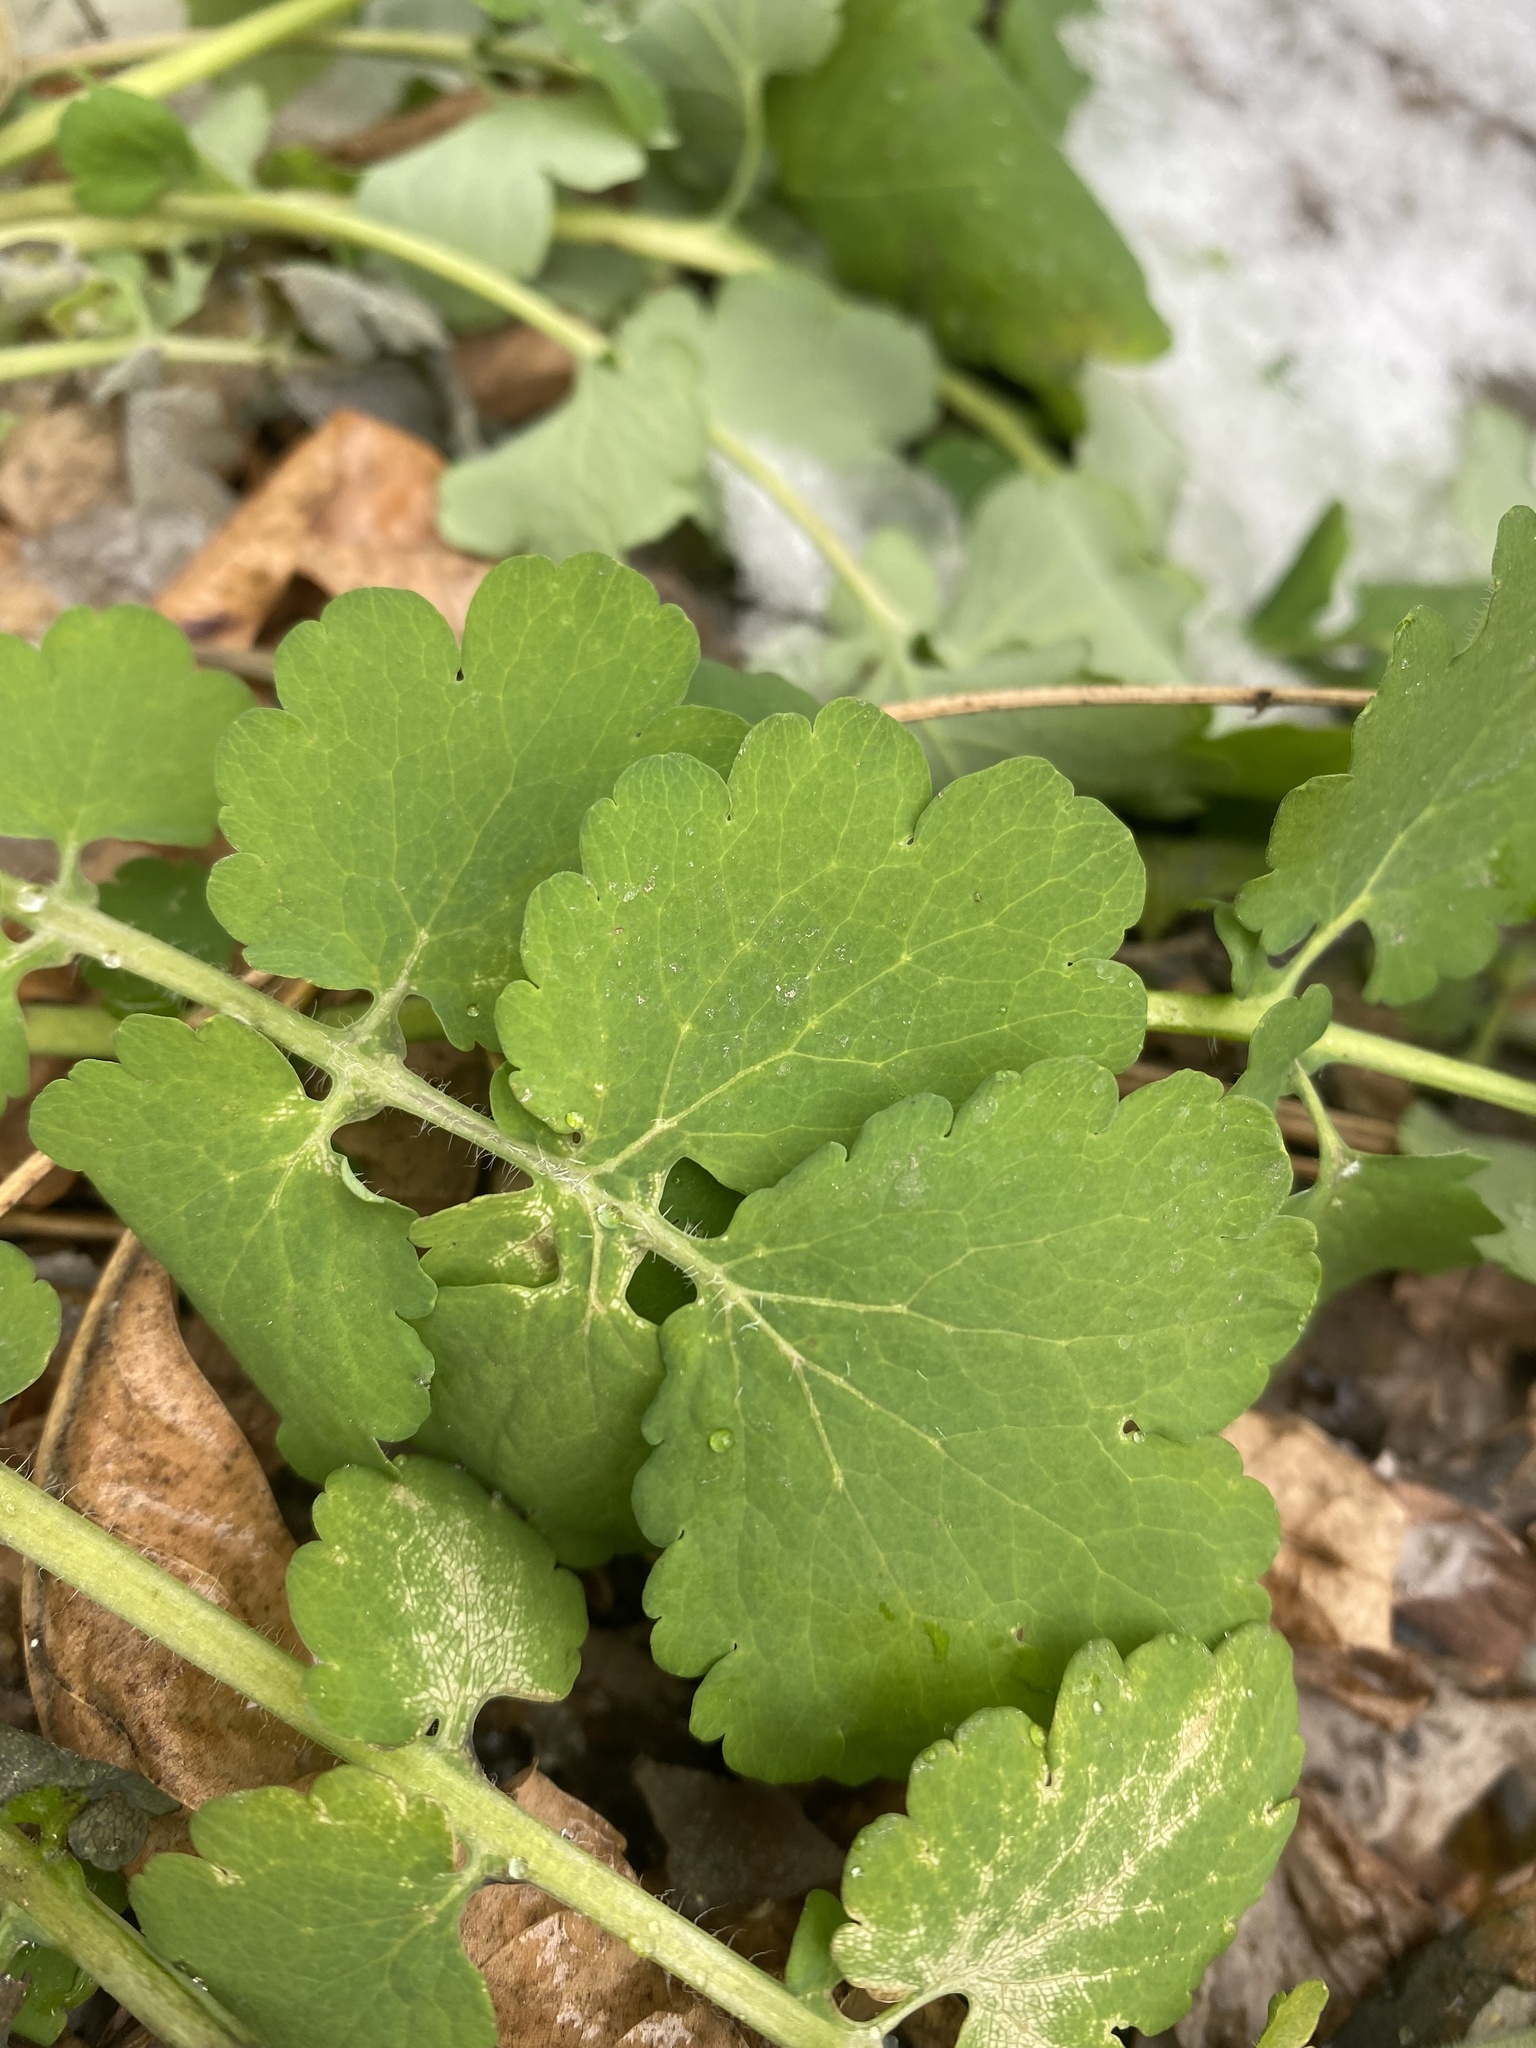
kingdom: Plantae
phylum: Tracheophyta
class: Magnoliopsida
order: Ranunculales
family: Papaveraceae
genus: Chelidonium
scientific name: Chelidonium majus
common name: Greater celandine
